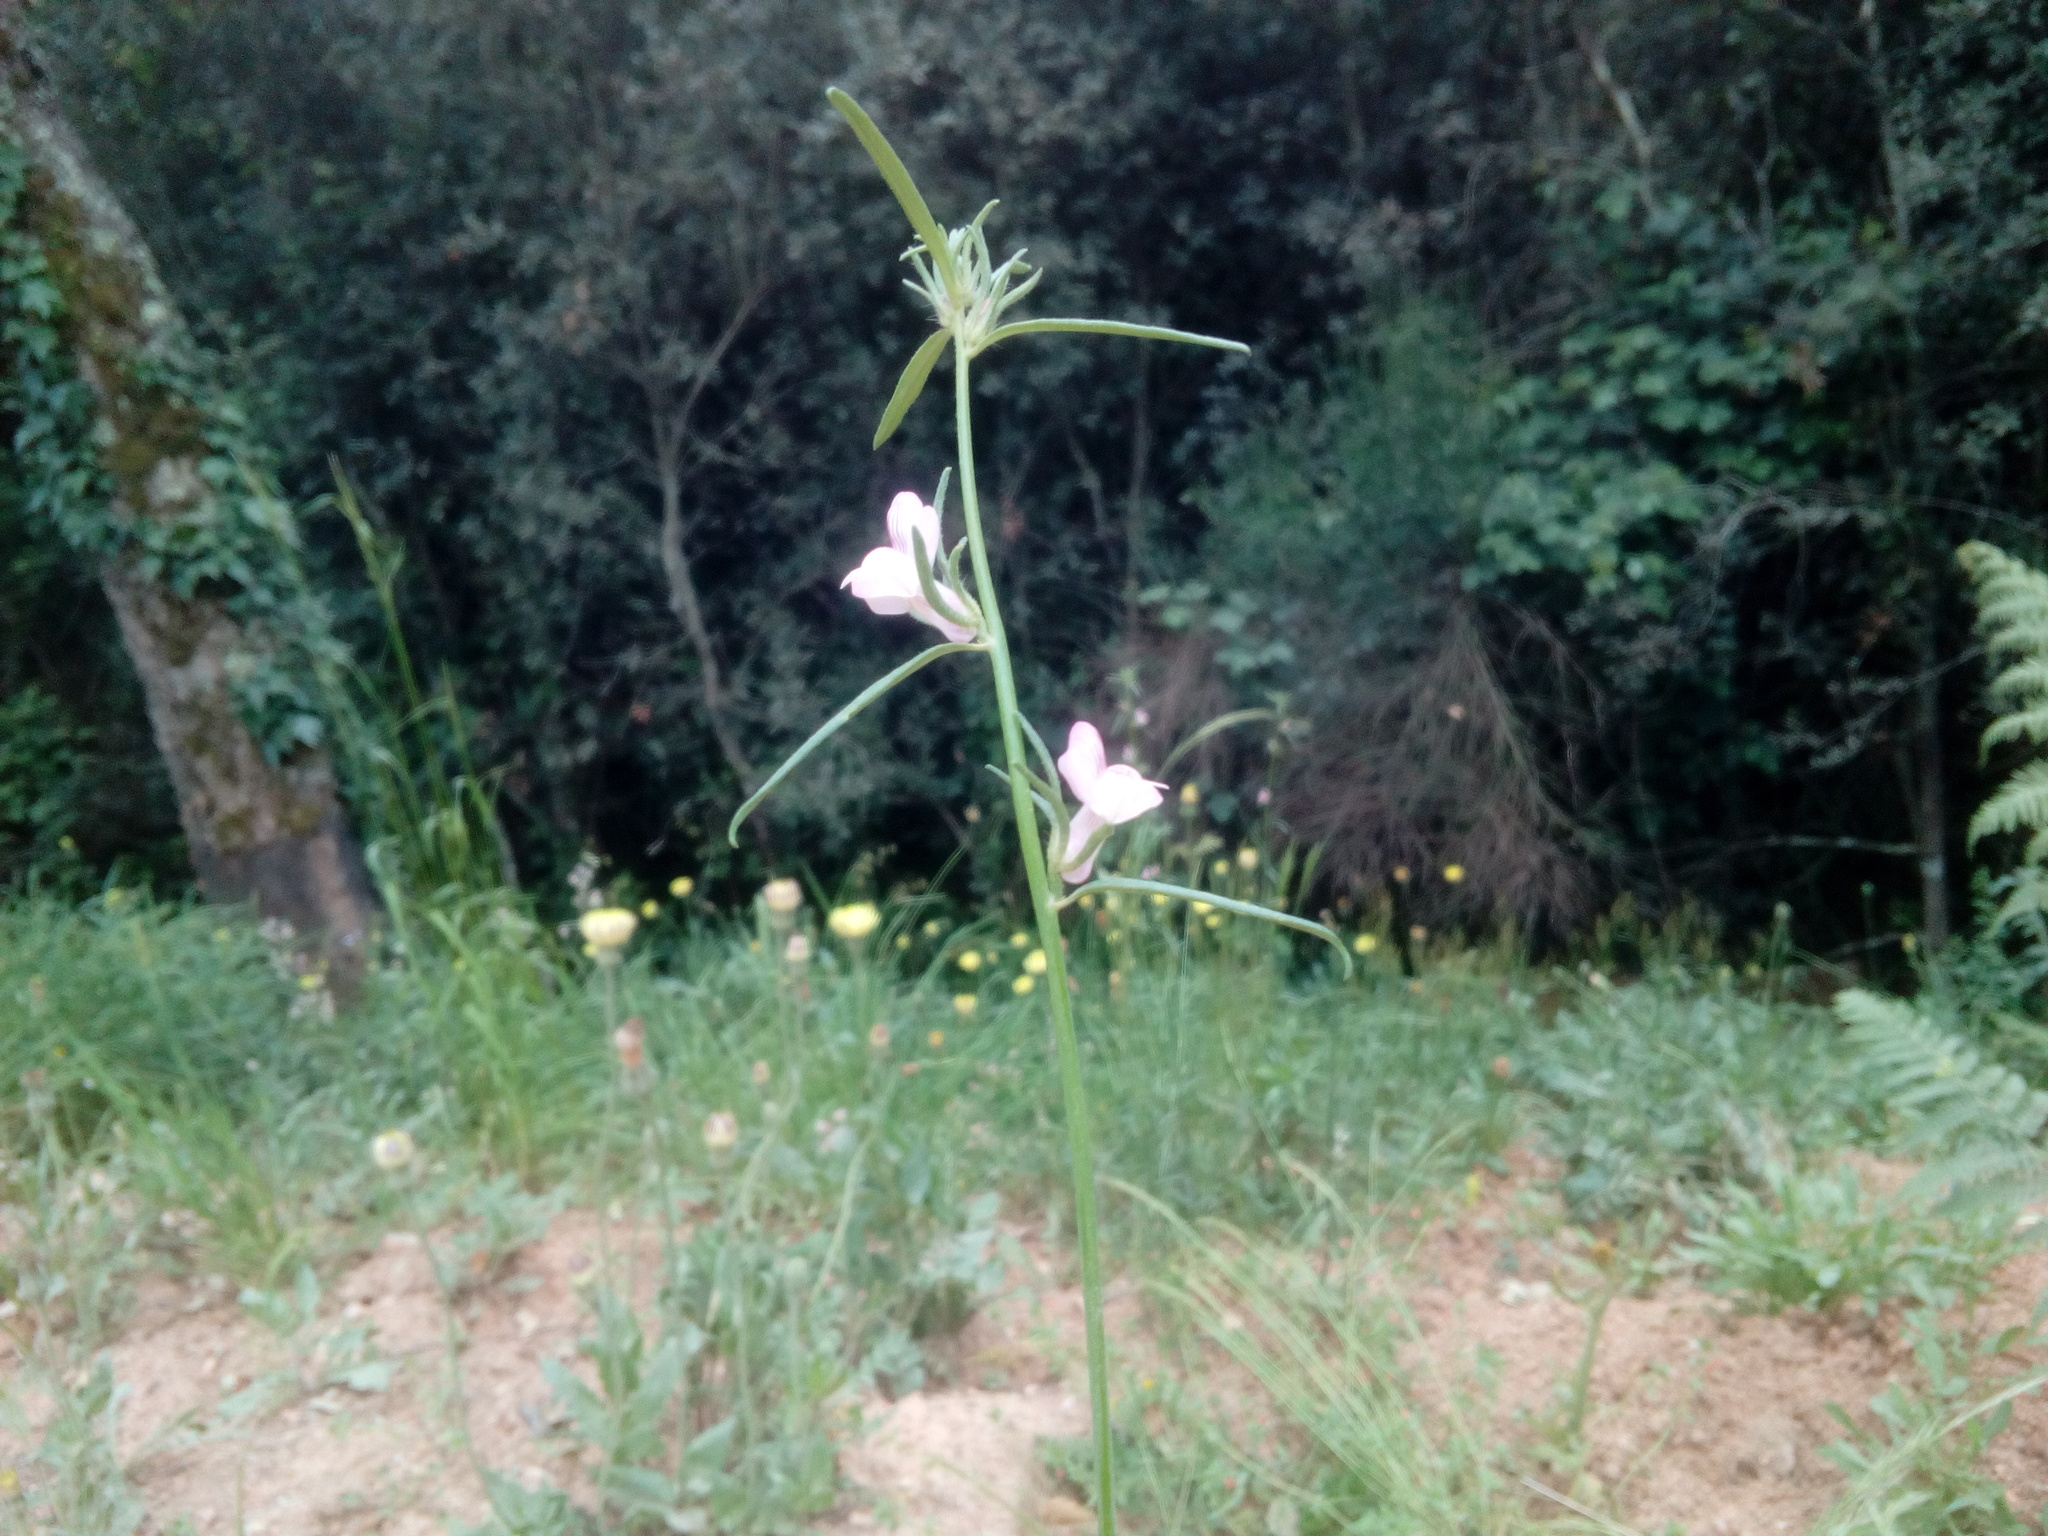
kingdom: Plantae
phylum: Tracheophyta
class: Magnoliopsida
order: Lamiales
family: Plantaginaceae
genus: Misopates
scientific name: Misopates orontium
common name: Weasel's-snout
